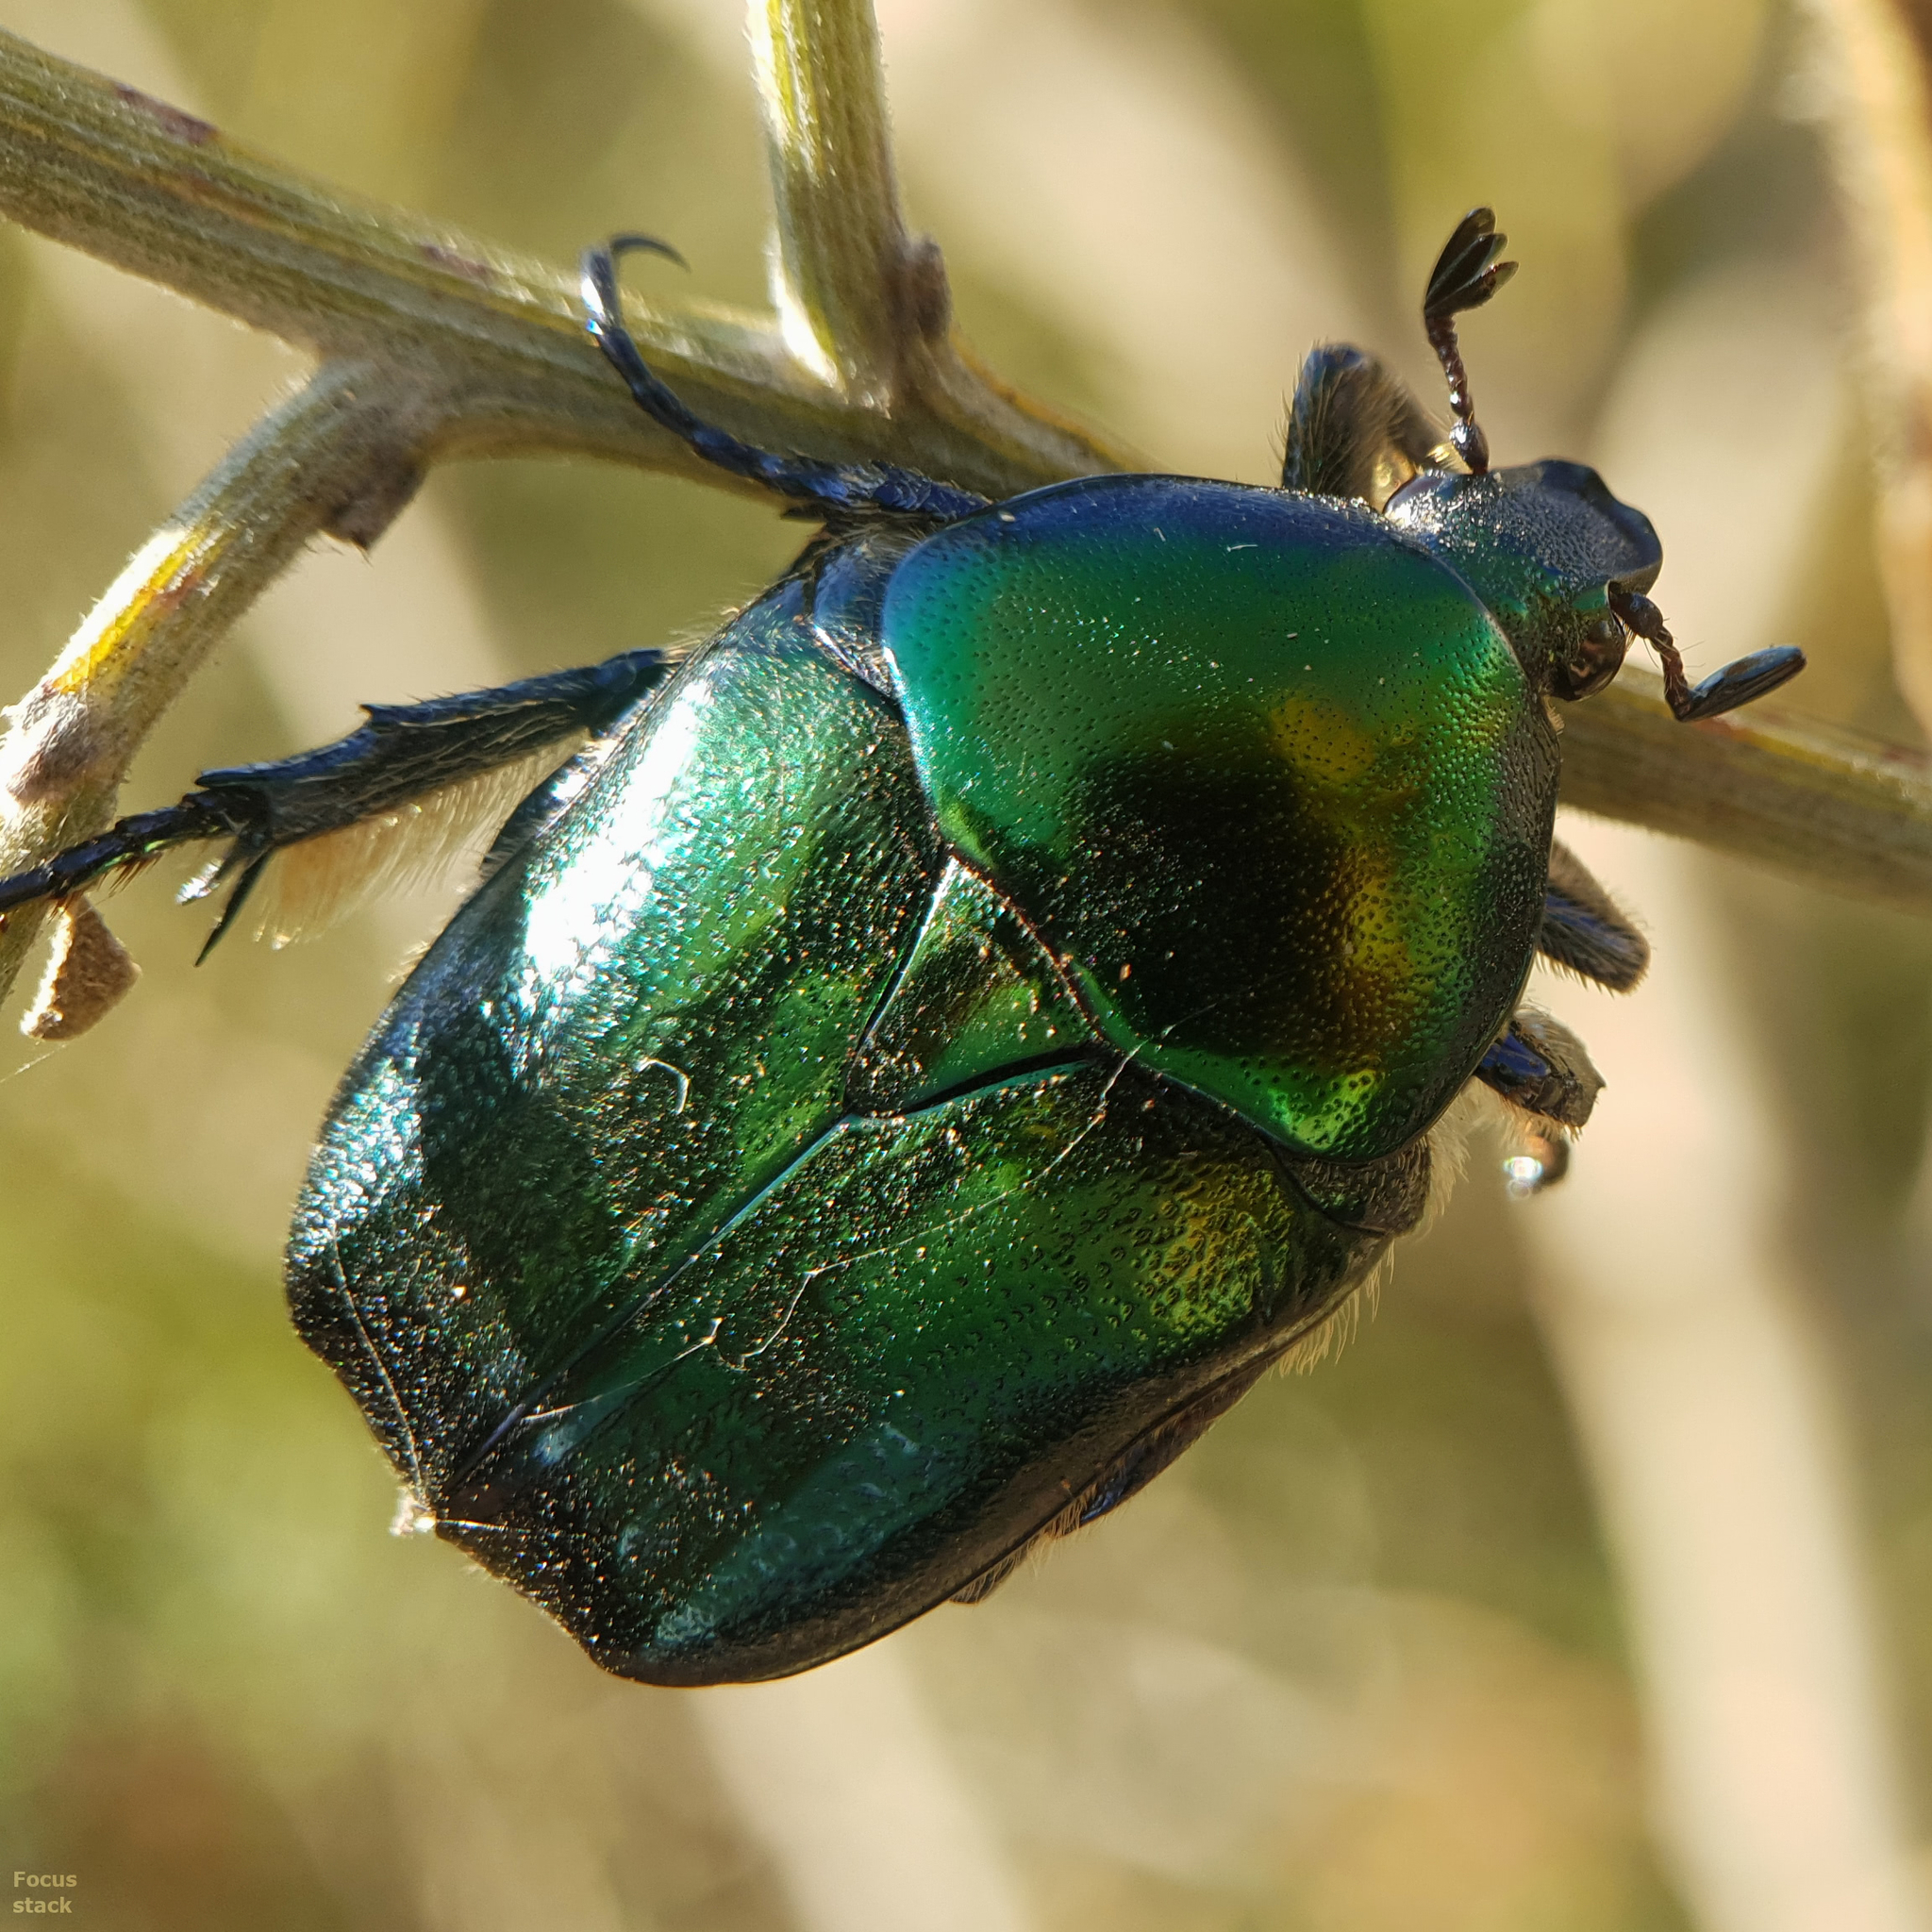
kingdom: Animalia
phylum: Arthropoda
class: Insecta
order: Coleoptera
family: Scarabaeidae
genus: Protaetia
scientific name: Protaetia judith
